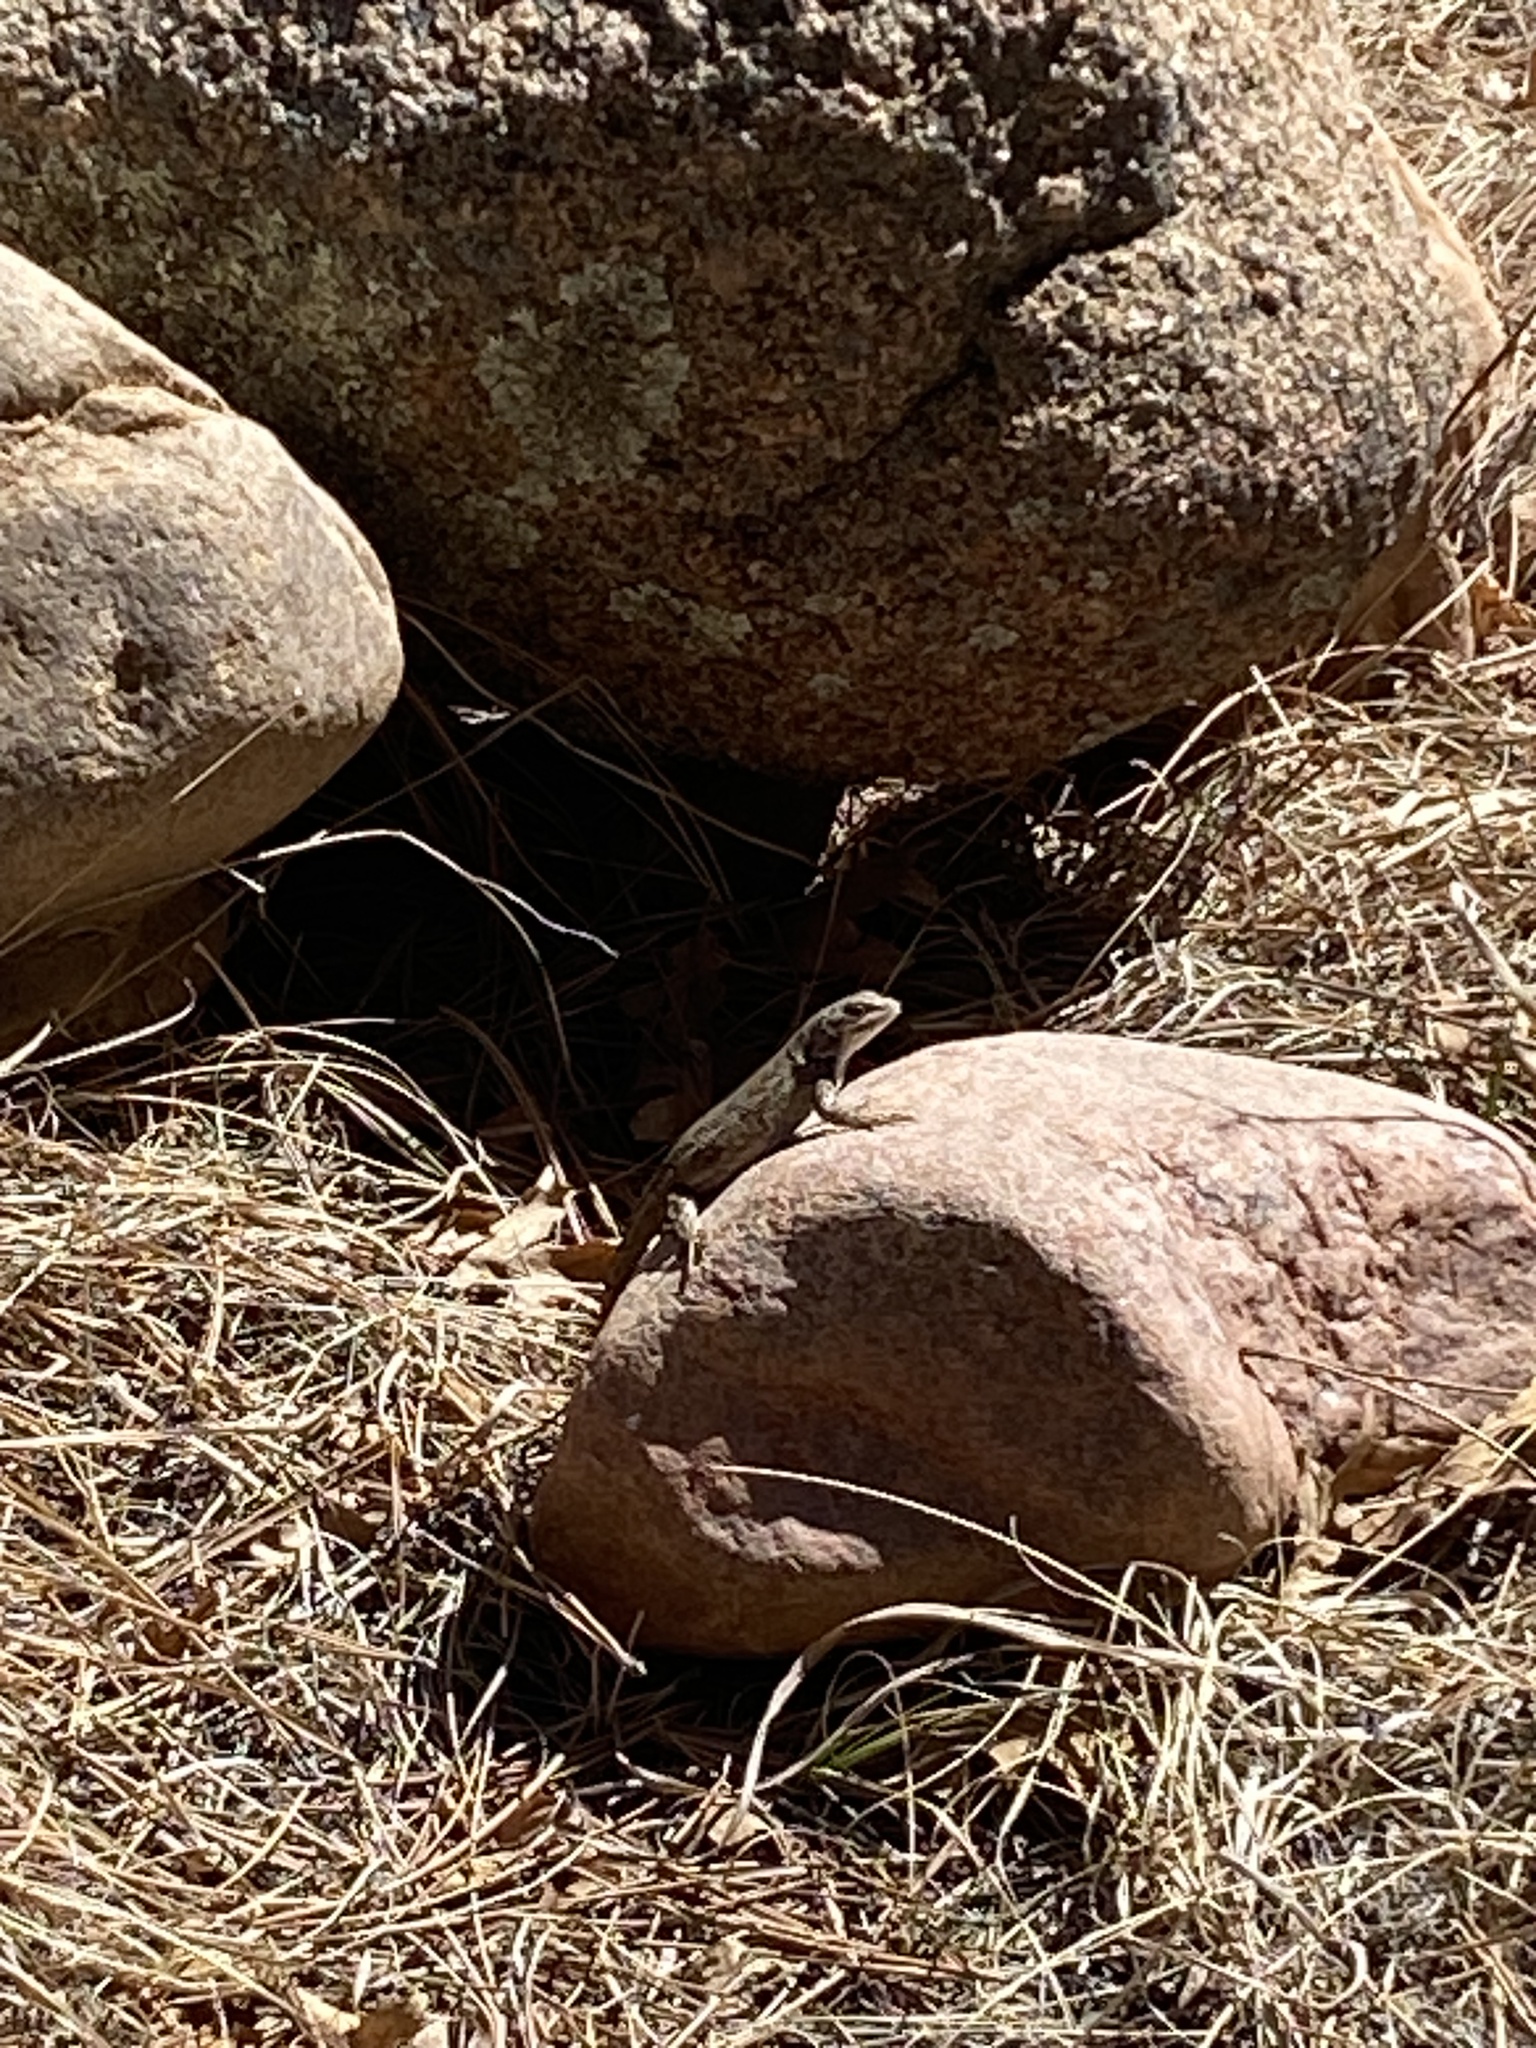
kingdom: Animalia
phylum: Chordata
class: Squamata
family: Phrynosomatidae
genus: Sceloporus
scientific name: Sceloporus consobrinus
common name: Southern prairie lizard
